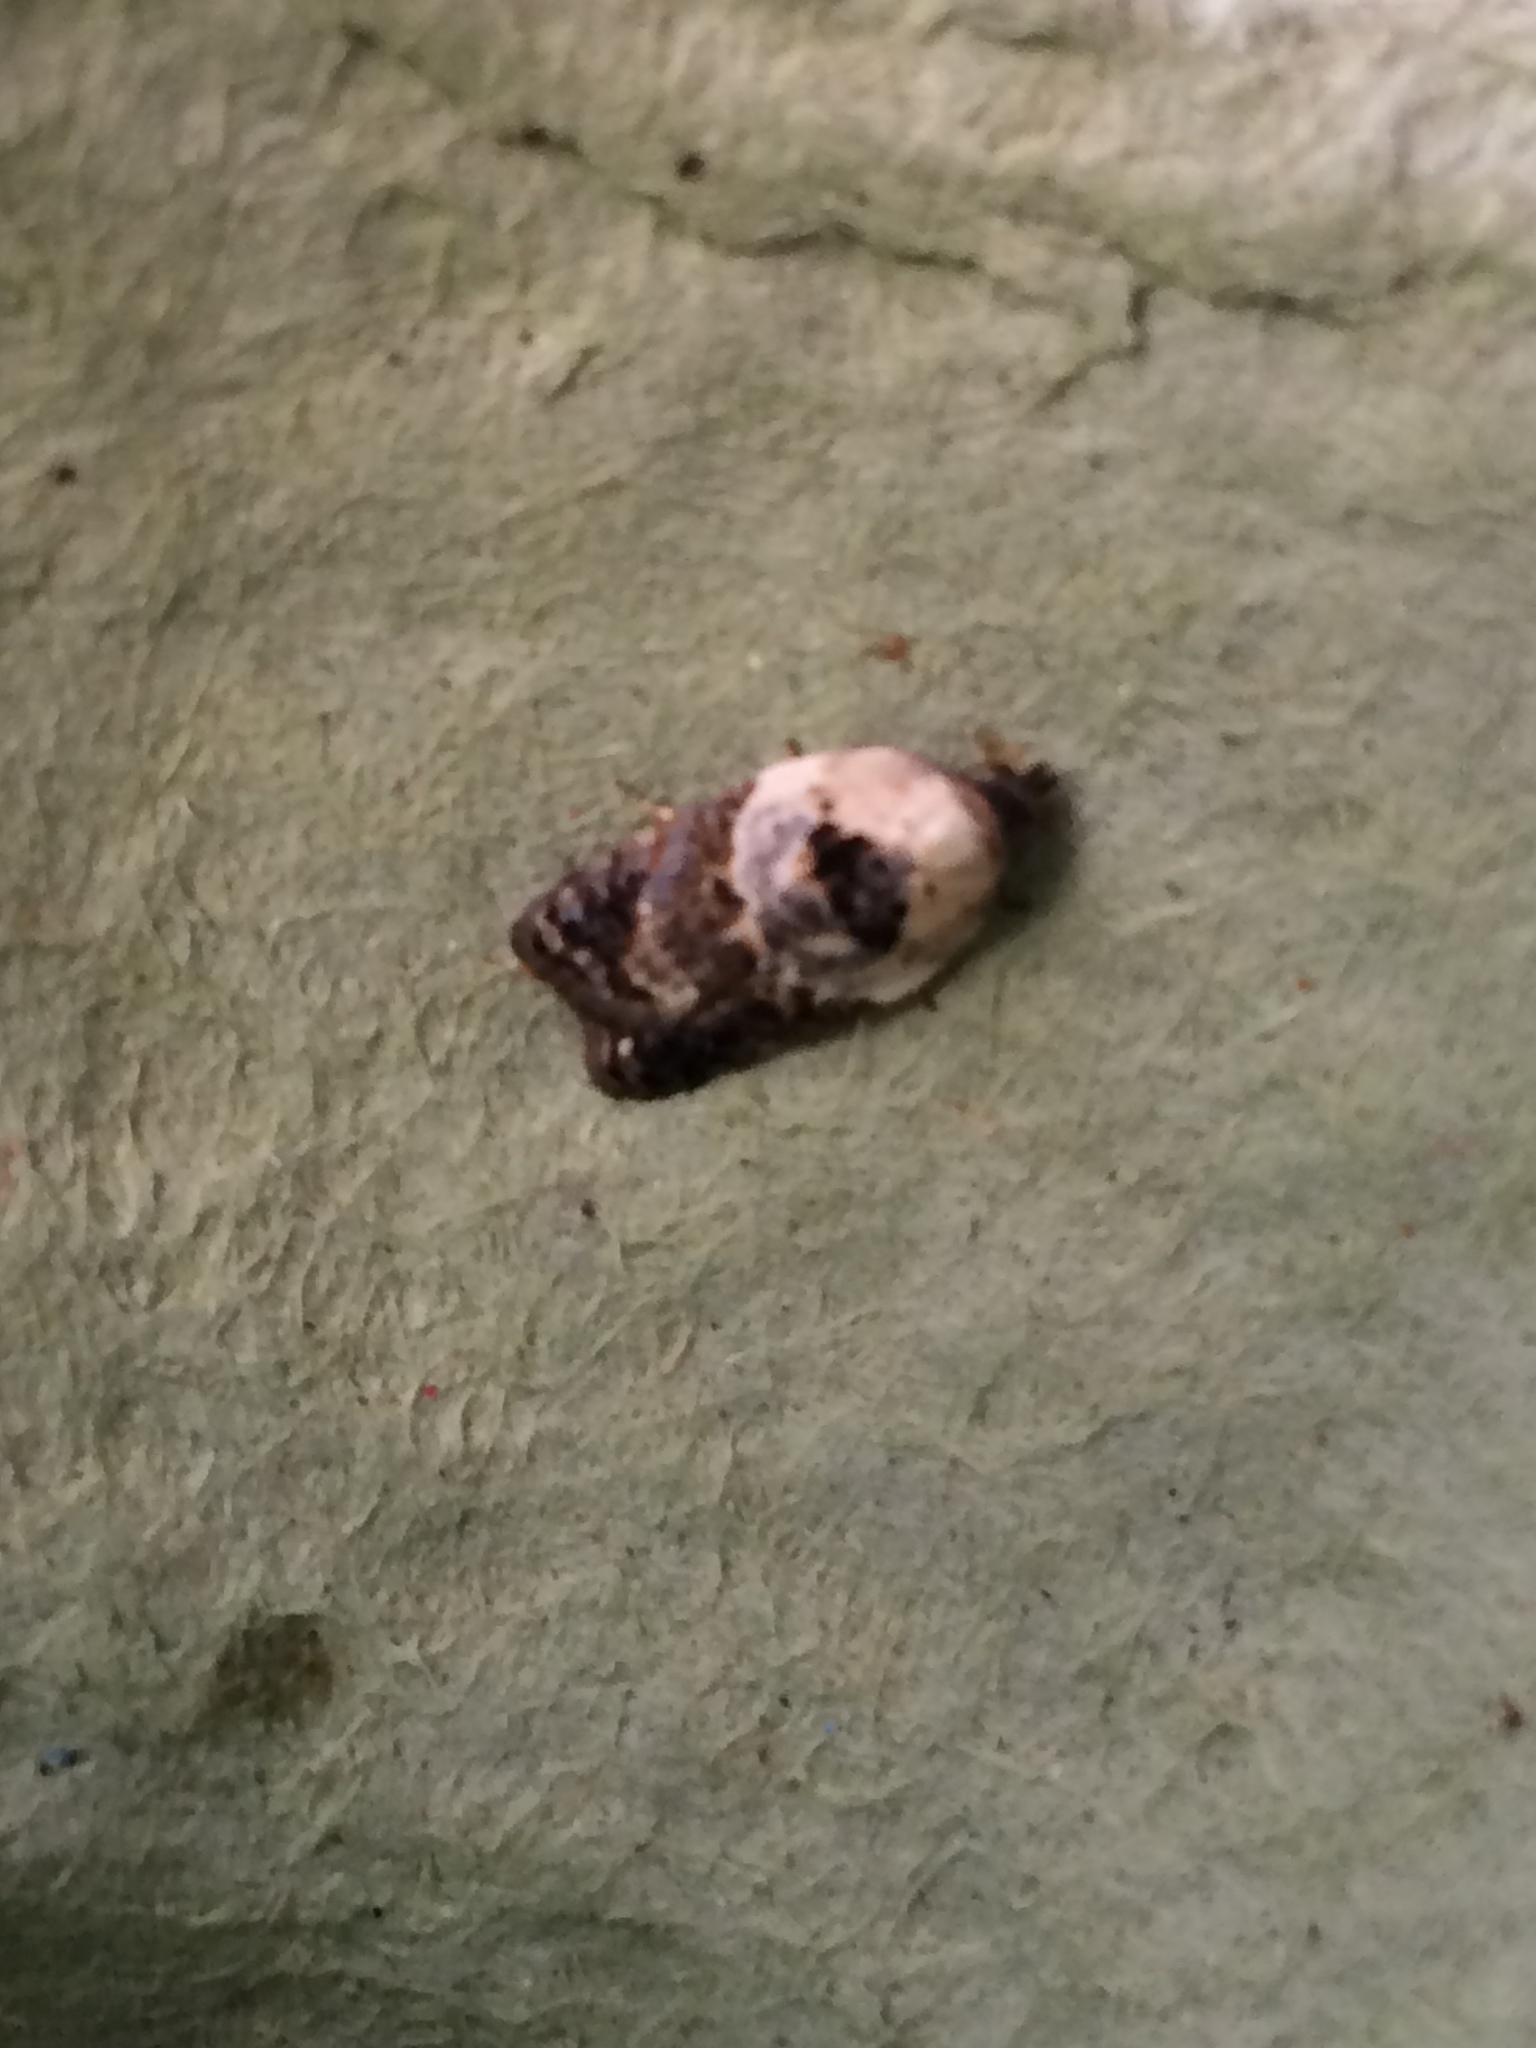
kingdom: Animalia
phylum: Arthropoda
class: Insecta
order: Lepidoptera
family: Tortricidae
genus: Acleris
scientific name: Acleris variegana
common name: Garden rose tortrix
